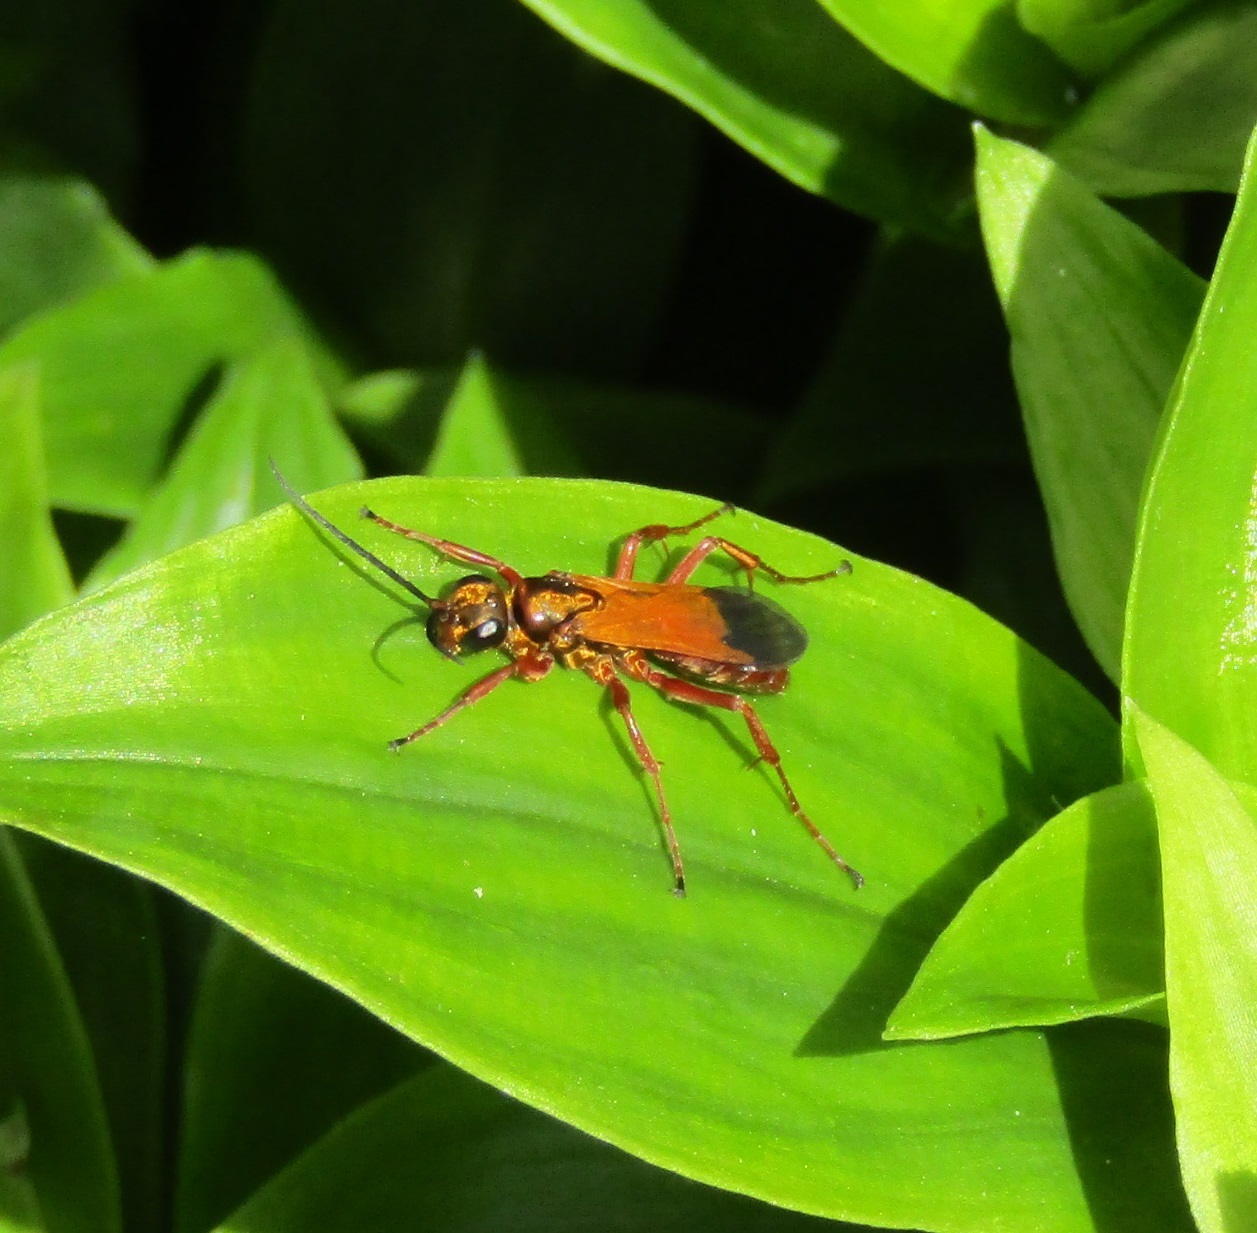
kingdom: Animalia
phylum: Arthropoda
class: Insecta
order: Hymenoptera
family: Pompilidae
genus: Priocnemis
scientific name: Priocnemis conformis
